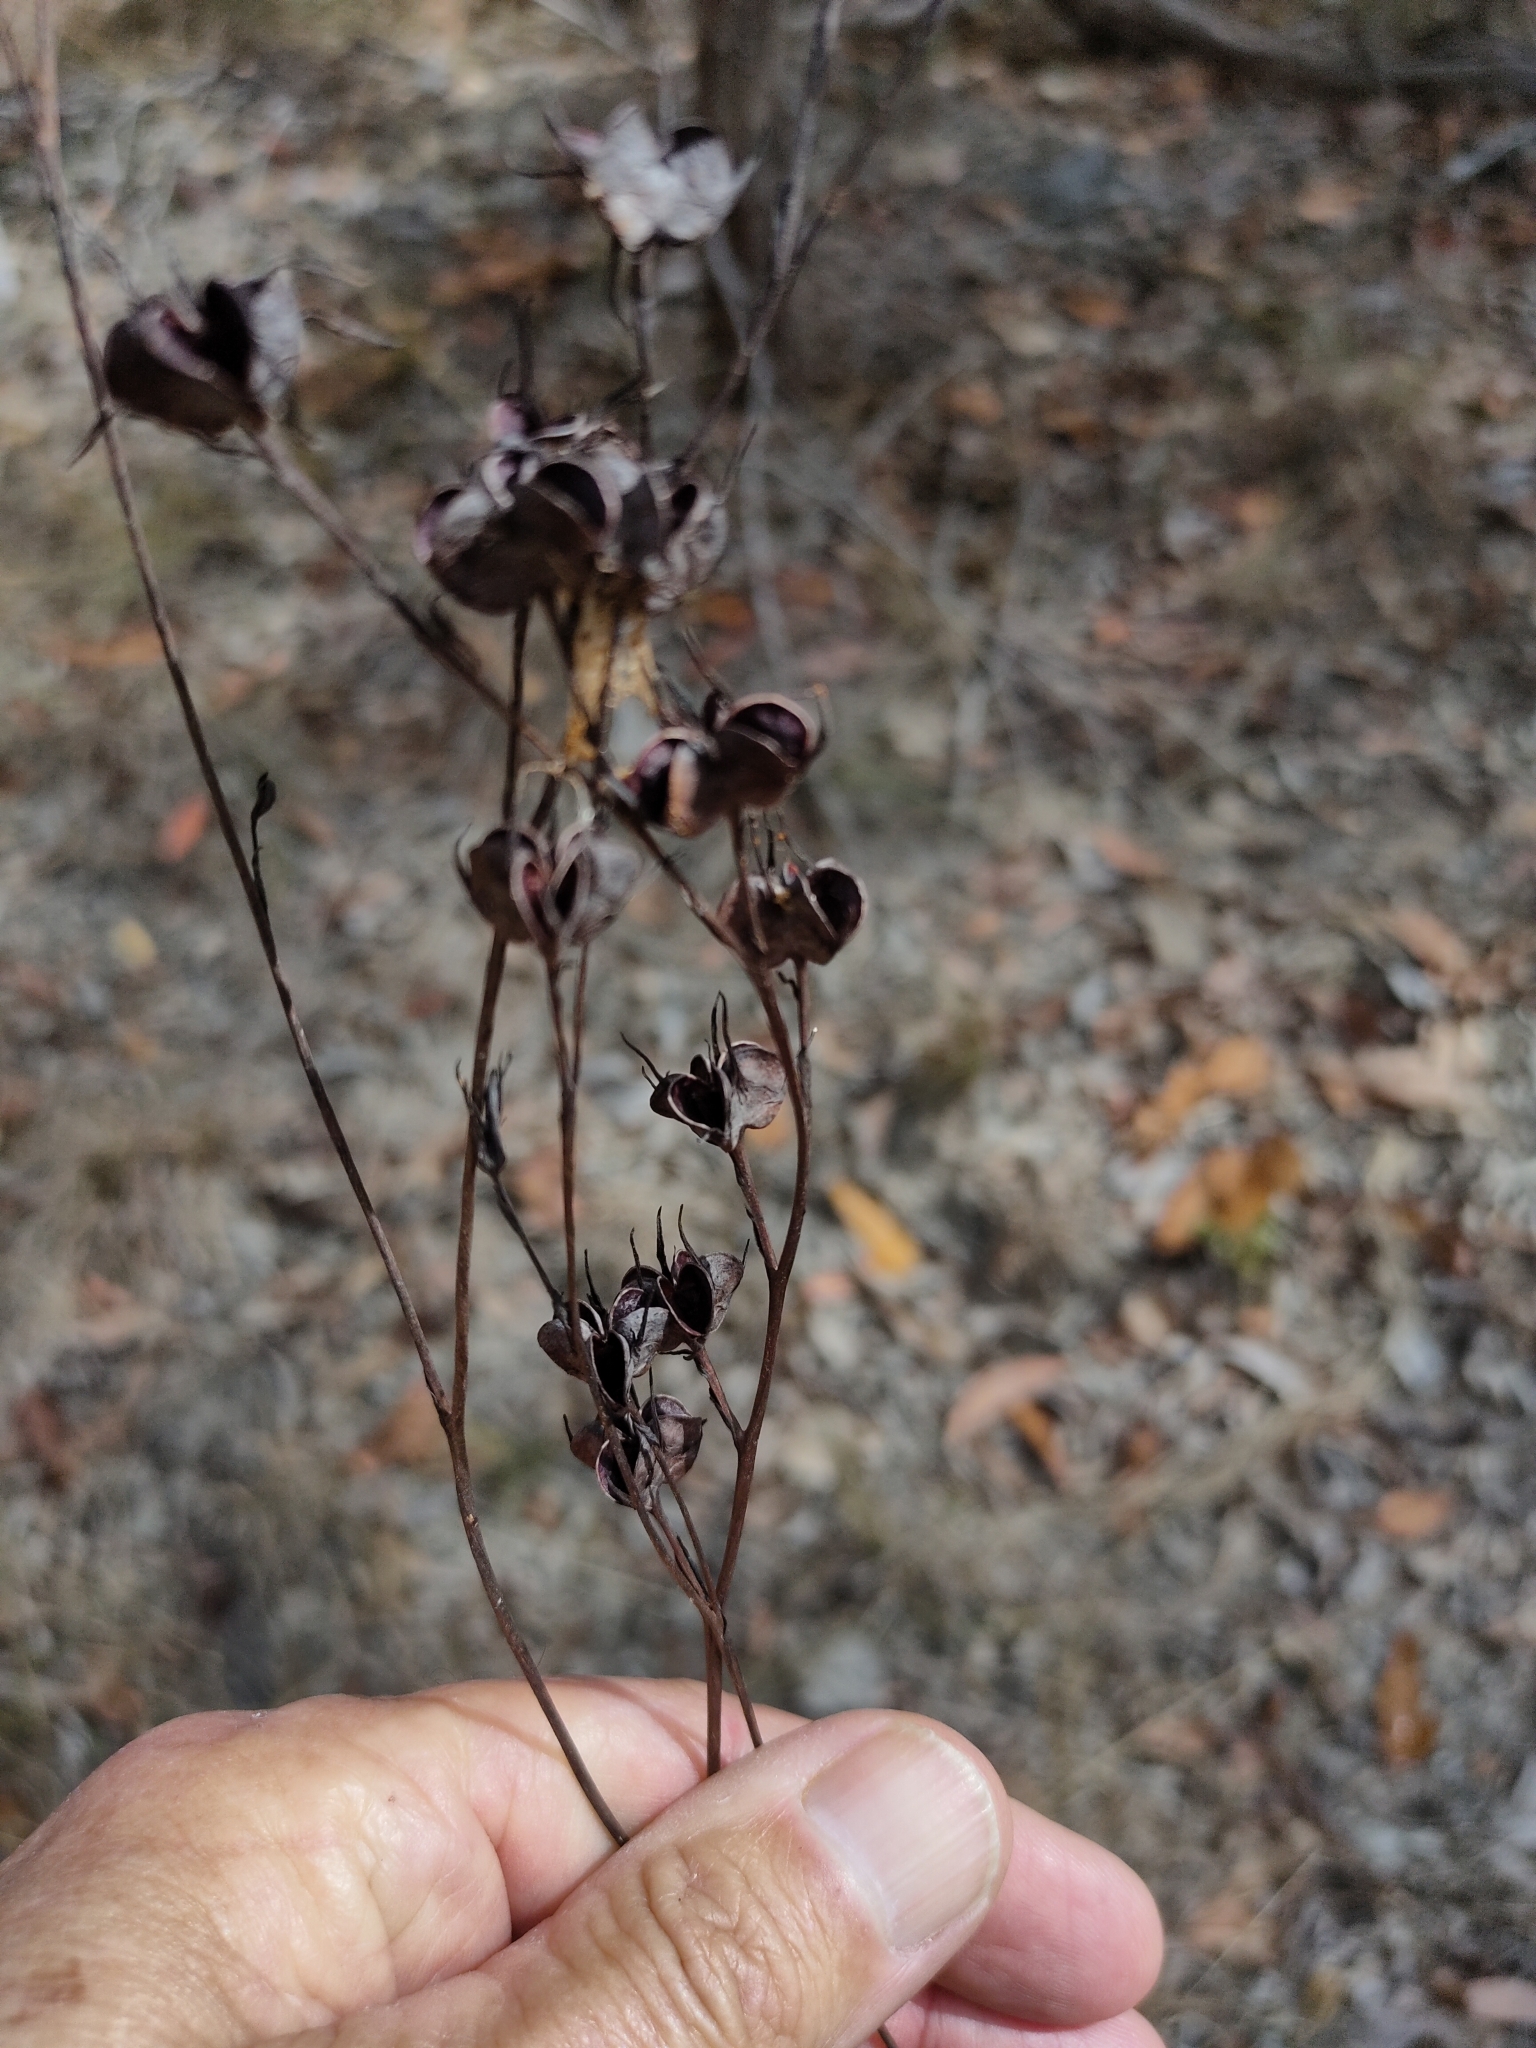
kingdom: Plantae
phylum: Tracheophyta
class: Liliopsida
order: Commelinales
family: Haemodoraceae
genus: Haemodorum
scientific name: Haemodorum austroqueenslandicum
